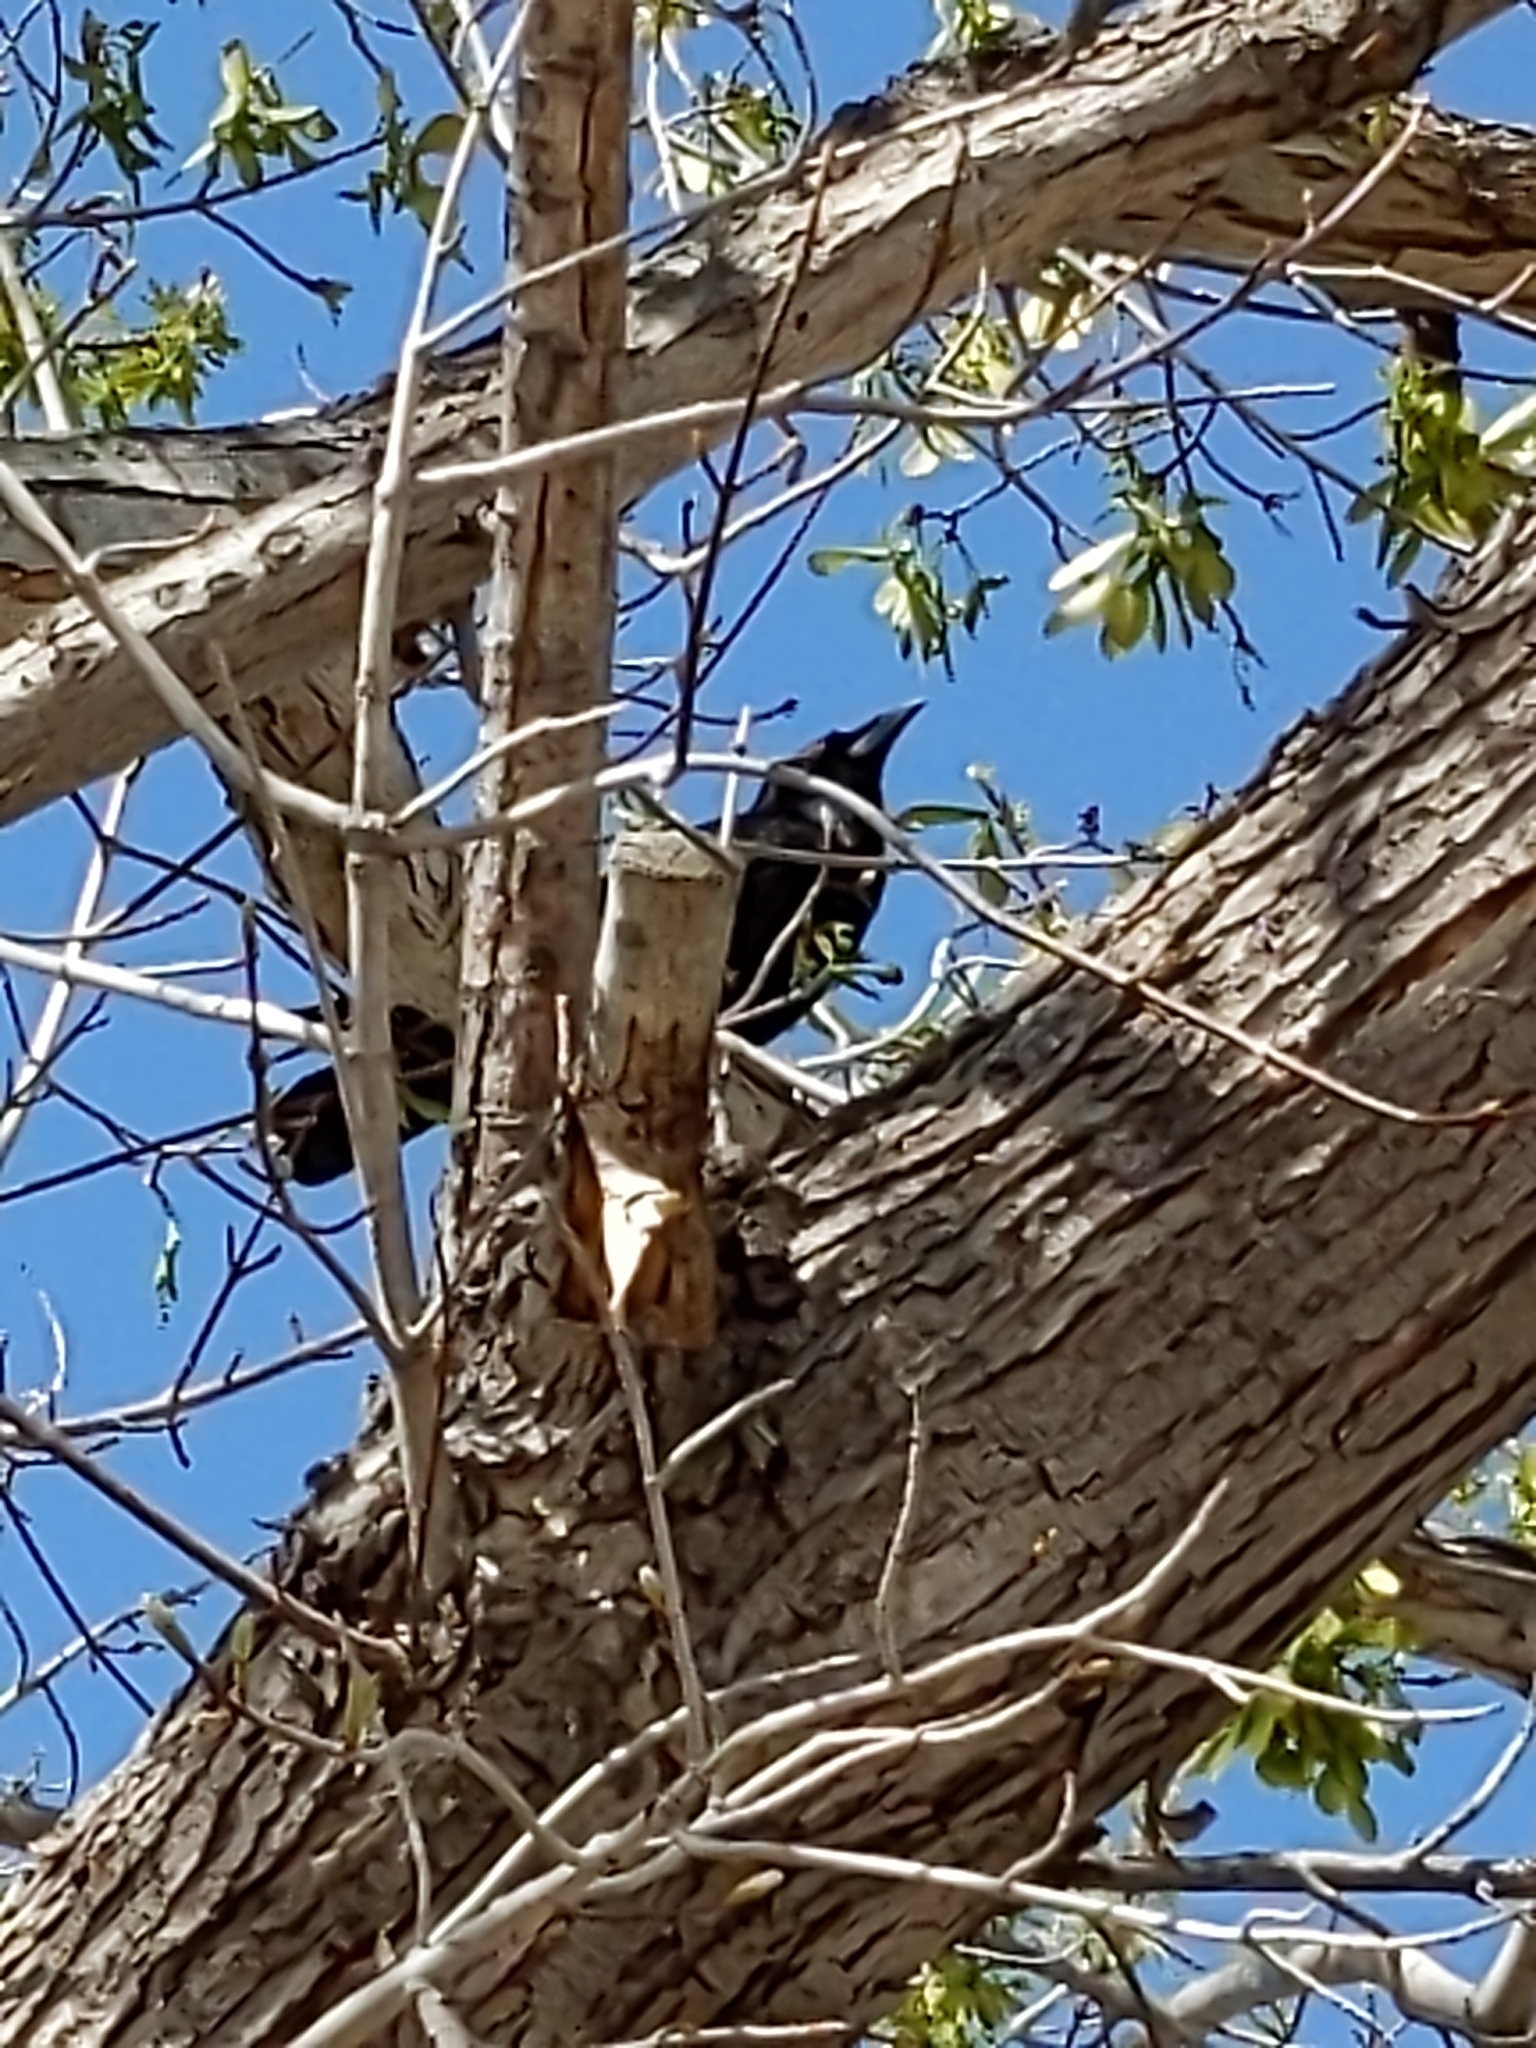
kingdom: Animalia
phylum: Chordata
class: Aves
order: Passeriformes
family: Corvidae
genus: Corvus
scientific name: Corvus brachyrhynchos
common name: American crow
